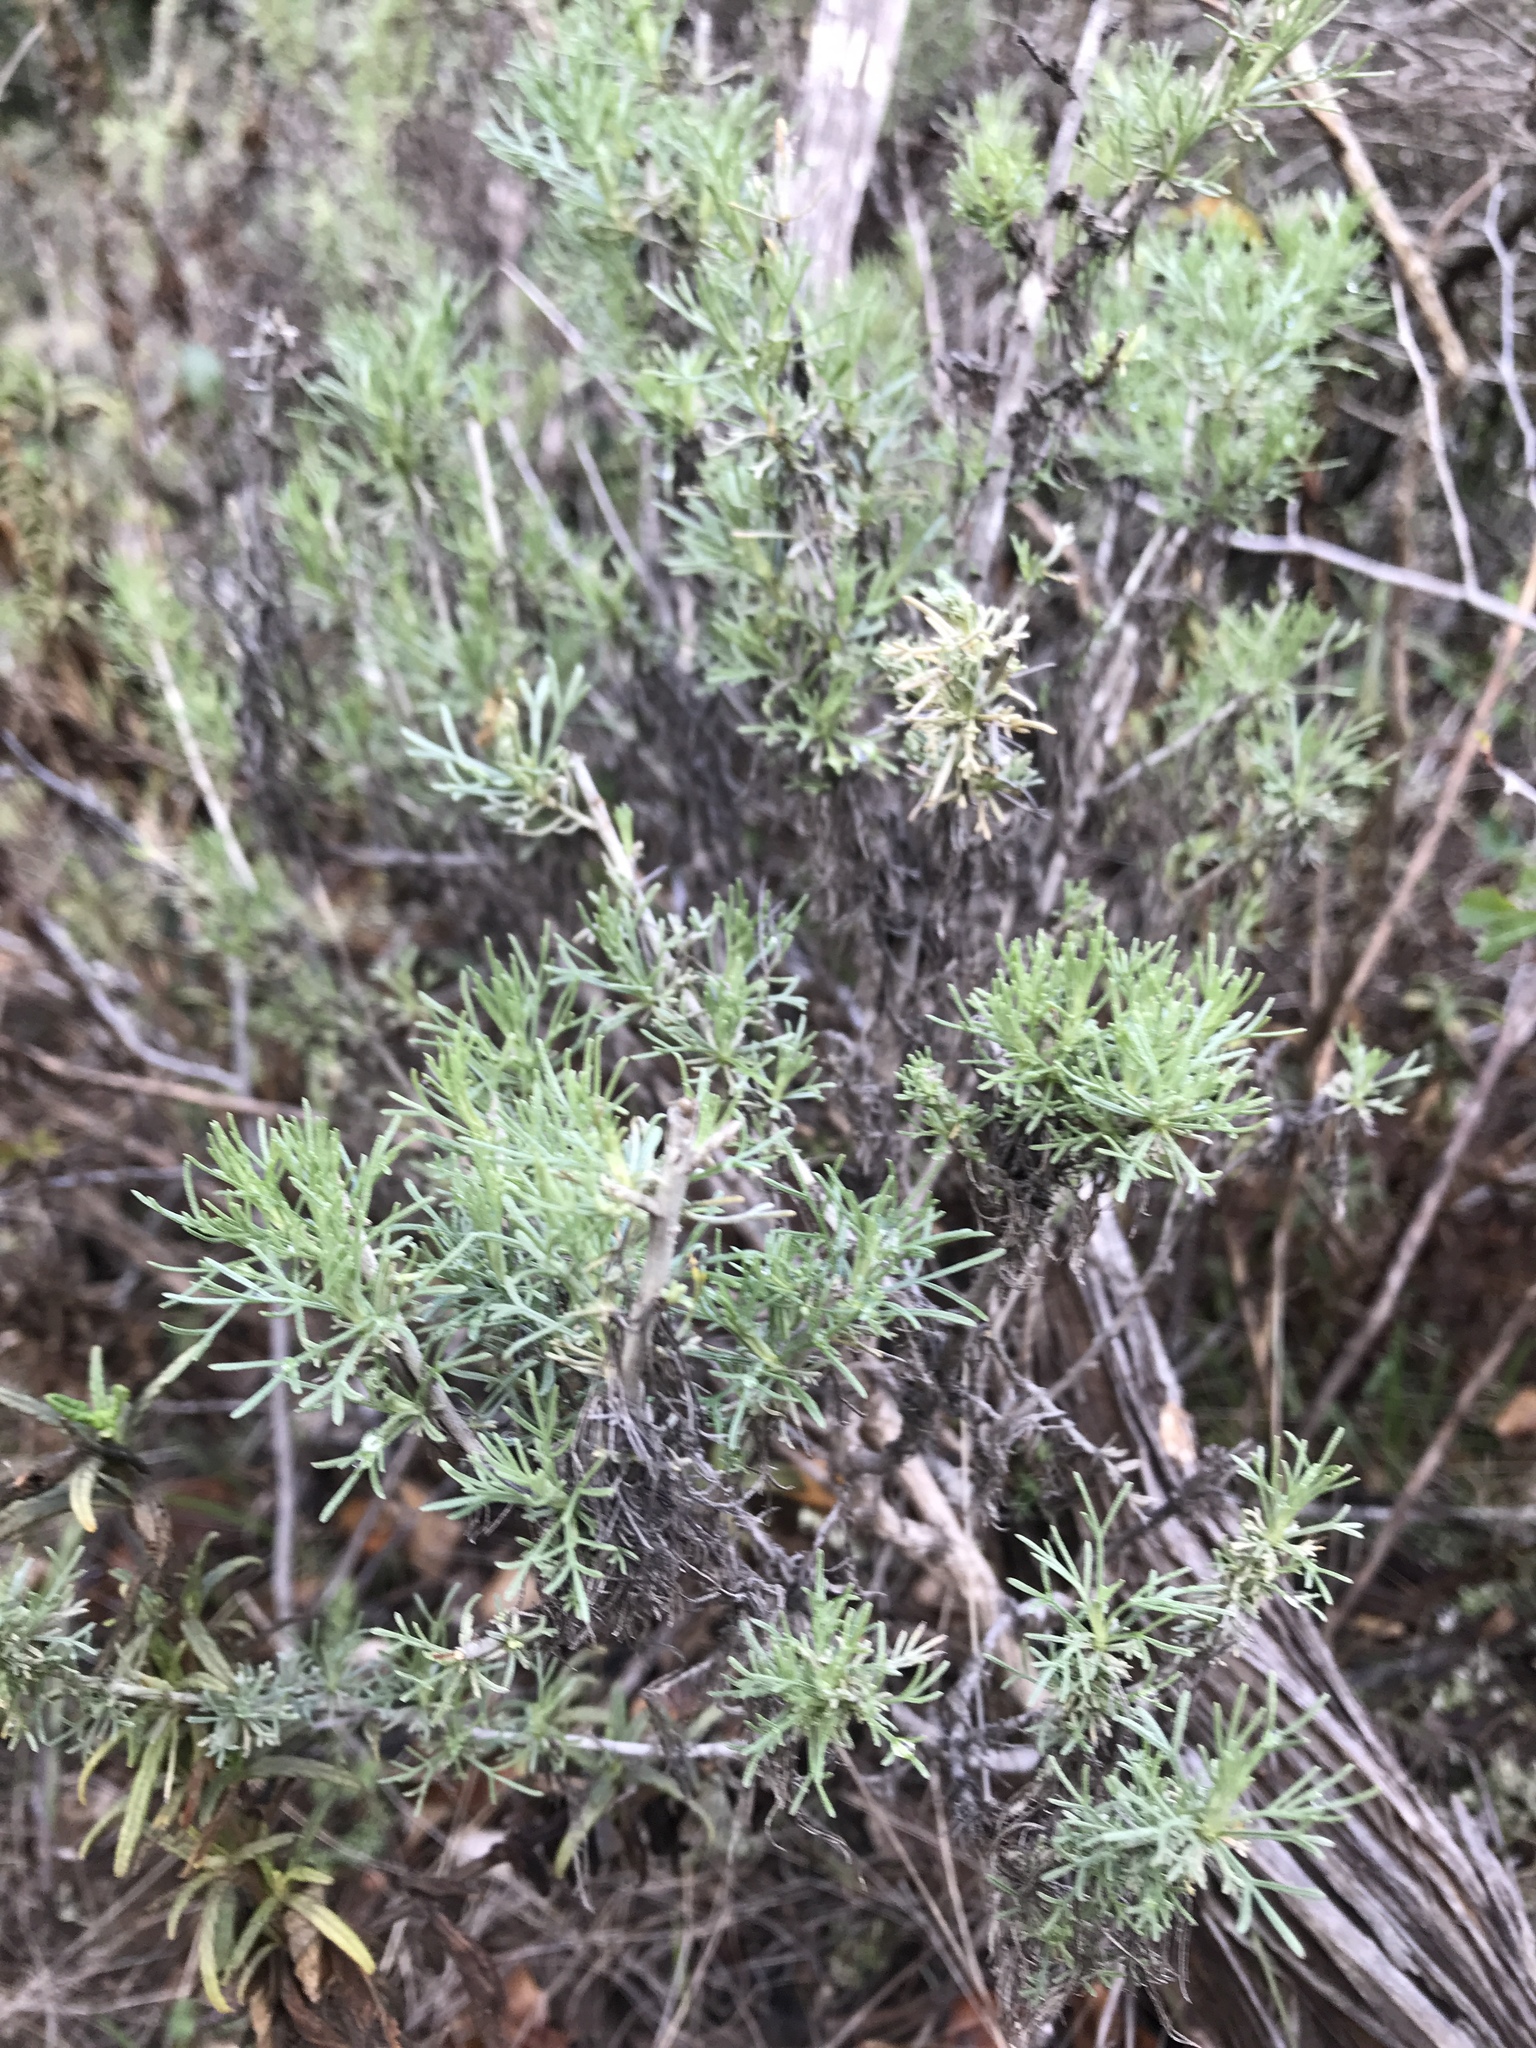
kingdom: Plantae
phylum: Tracheophyta
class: Magnoliopsida
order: Asterales
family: Asteraceae
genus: Artemisia
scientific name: Artemisia californica
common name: California sagebrush
